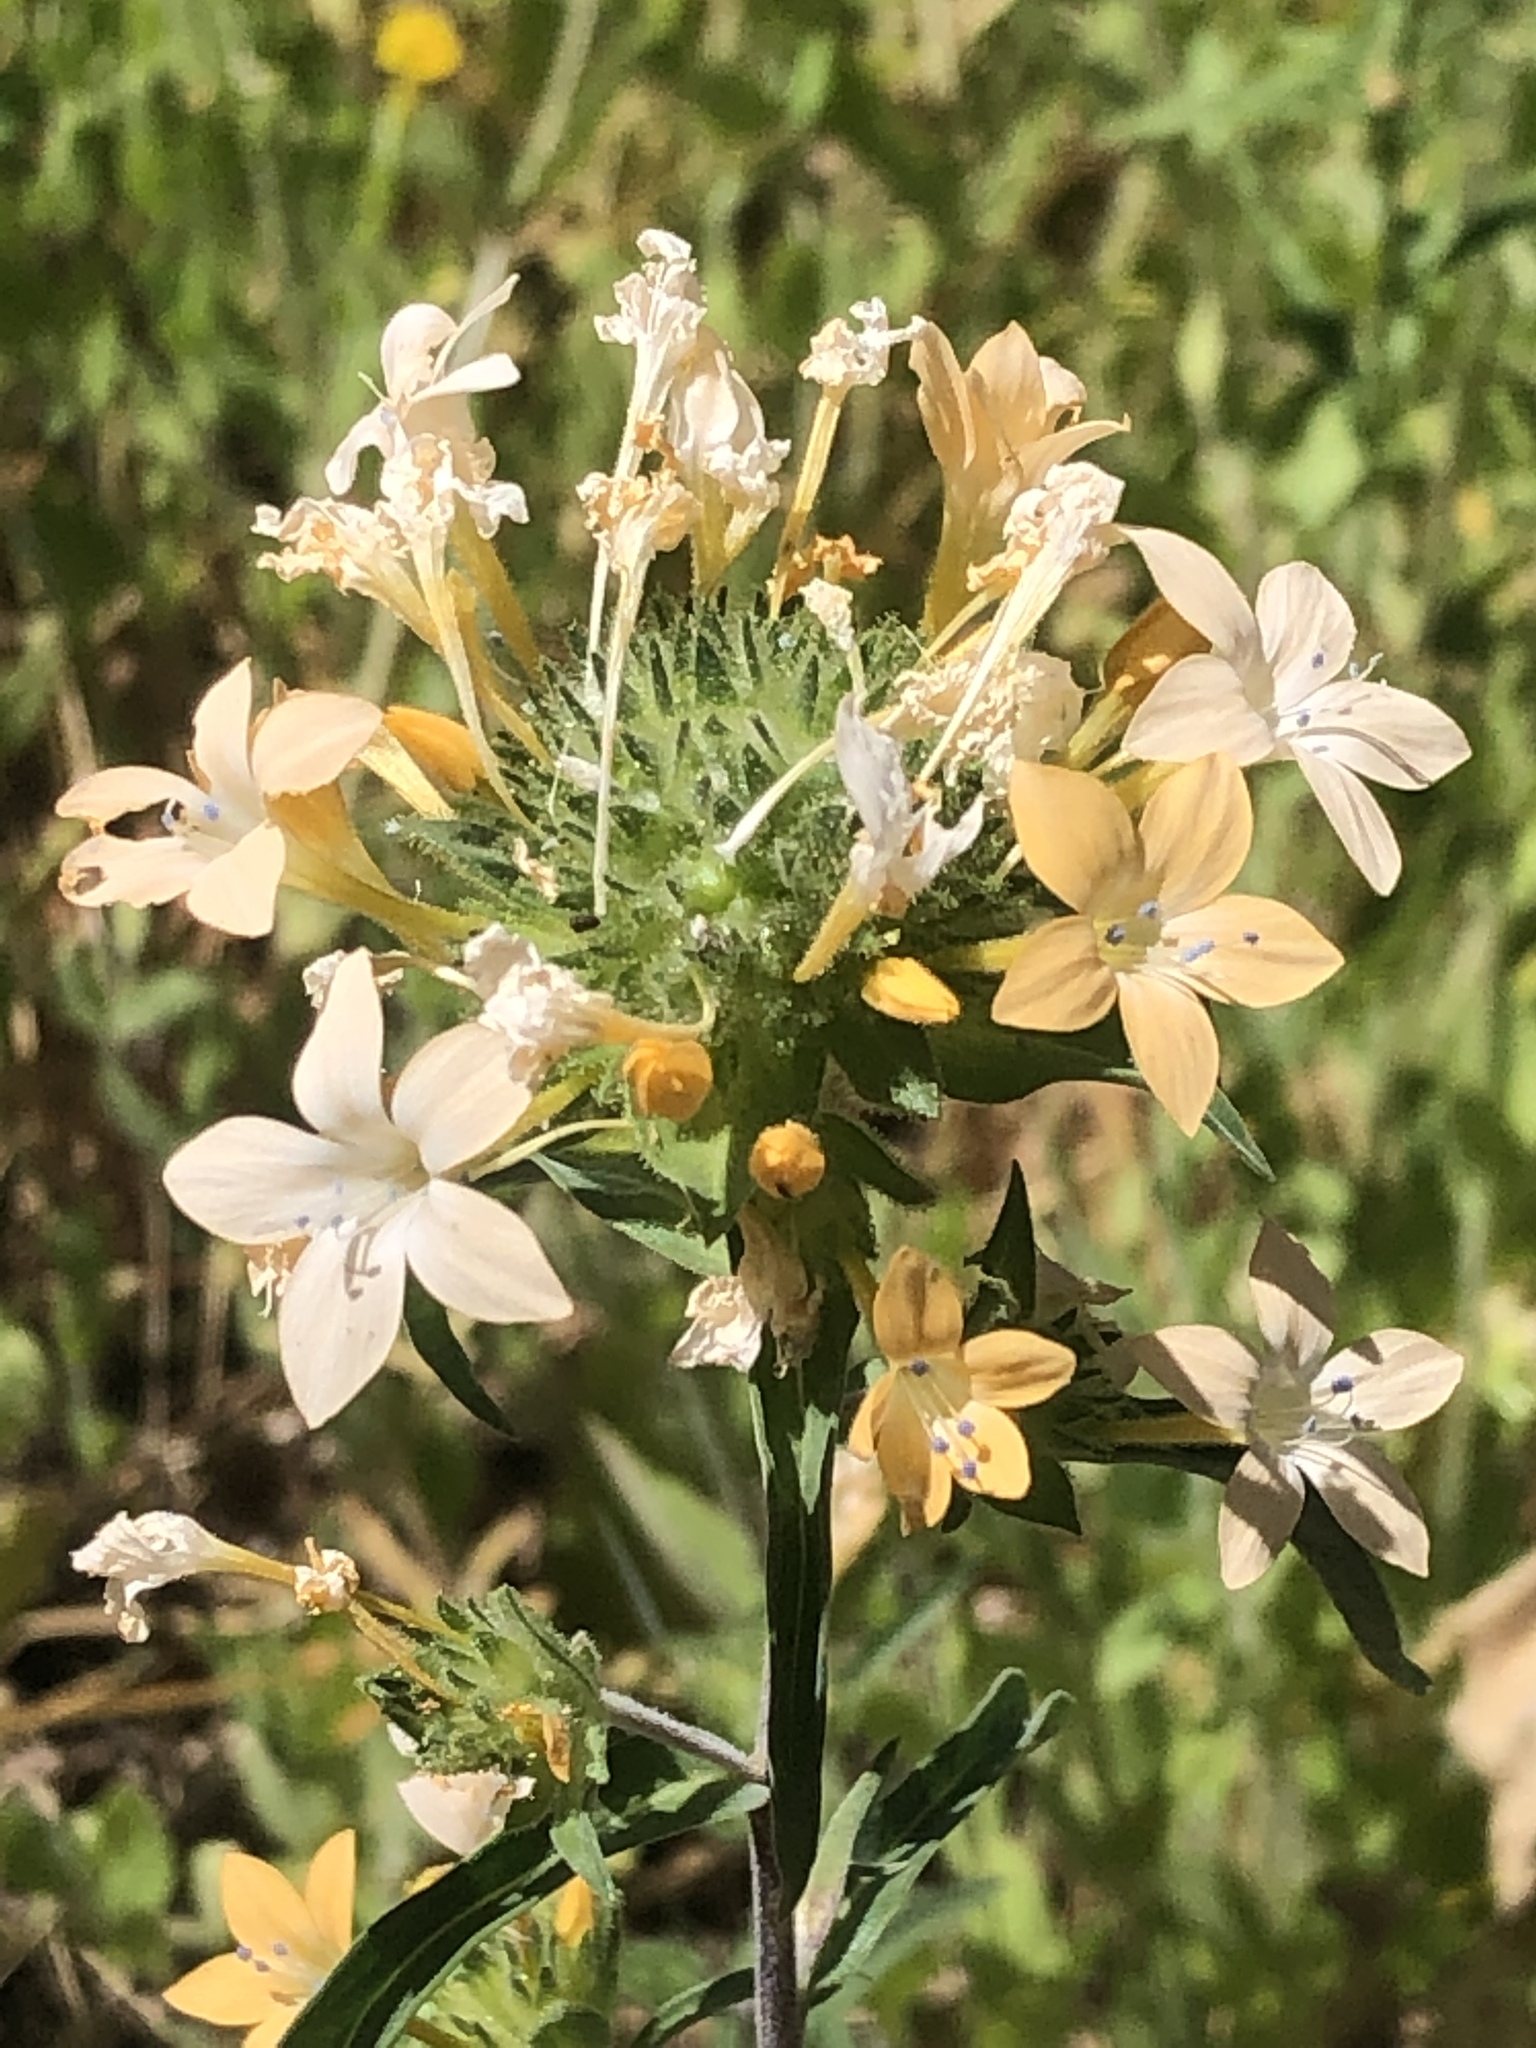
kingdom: Plantae
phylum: Tracheophyta
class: Magnoliopsida
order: Ericales
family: Polemoniaceae
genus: Collomia
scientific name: Collomia grandiflora
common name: California strawflower
